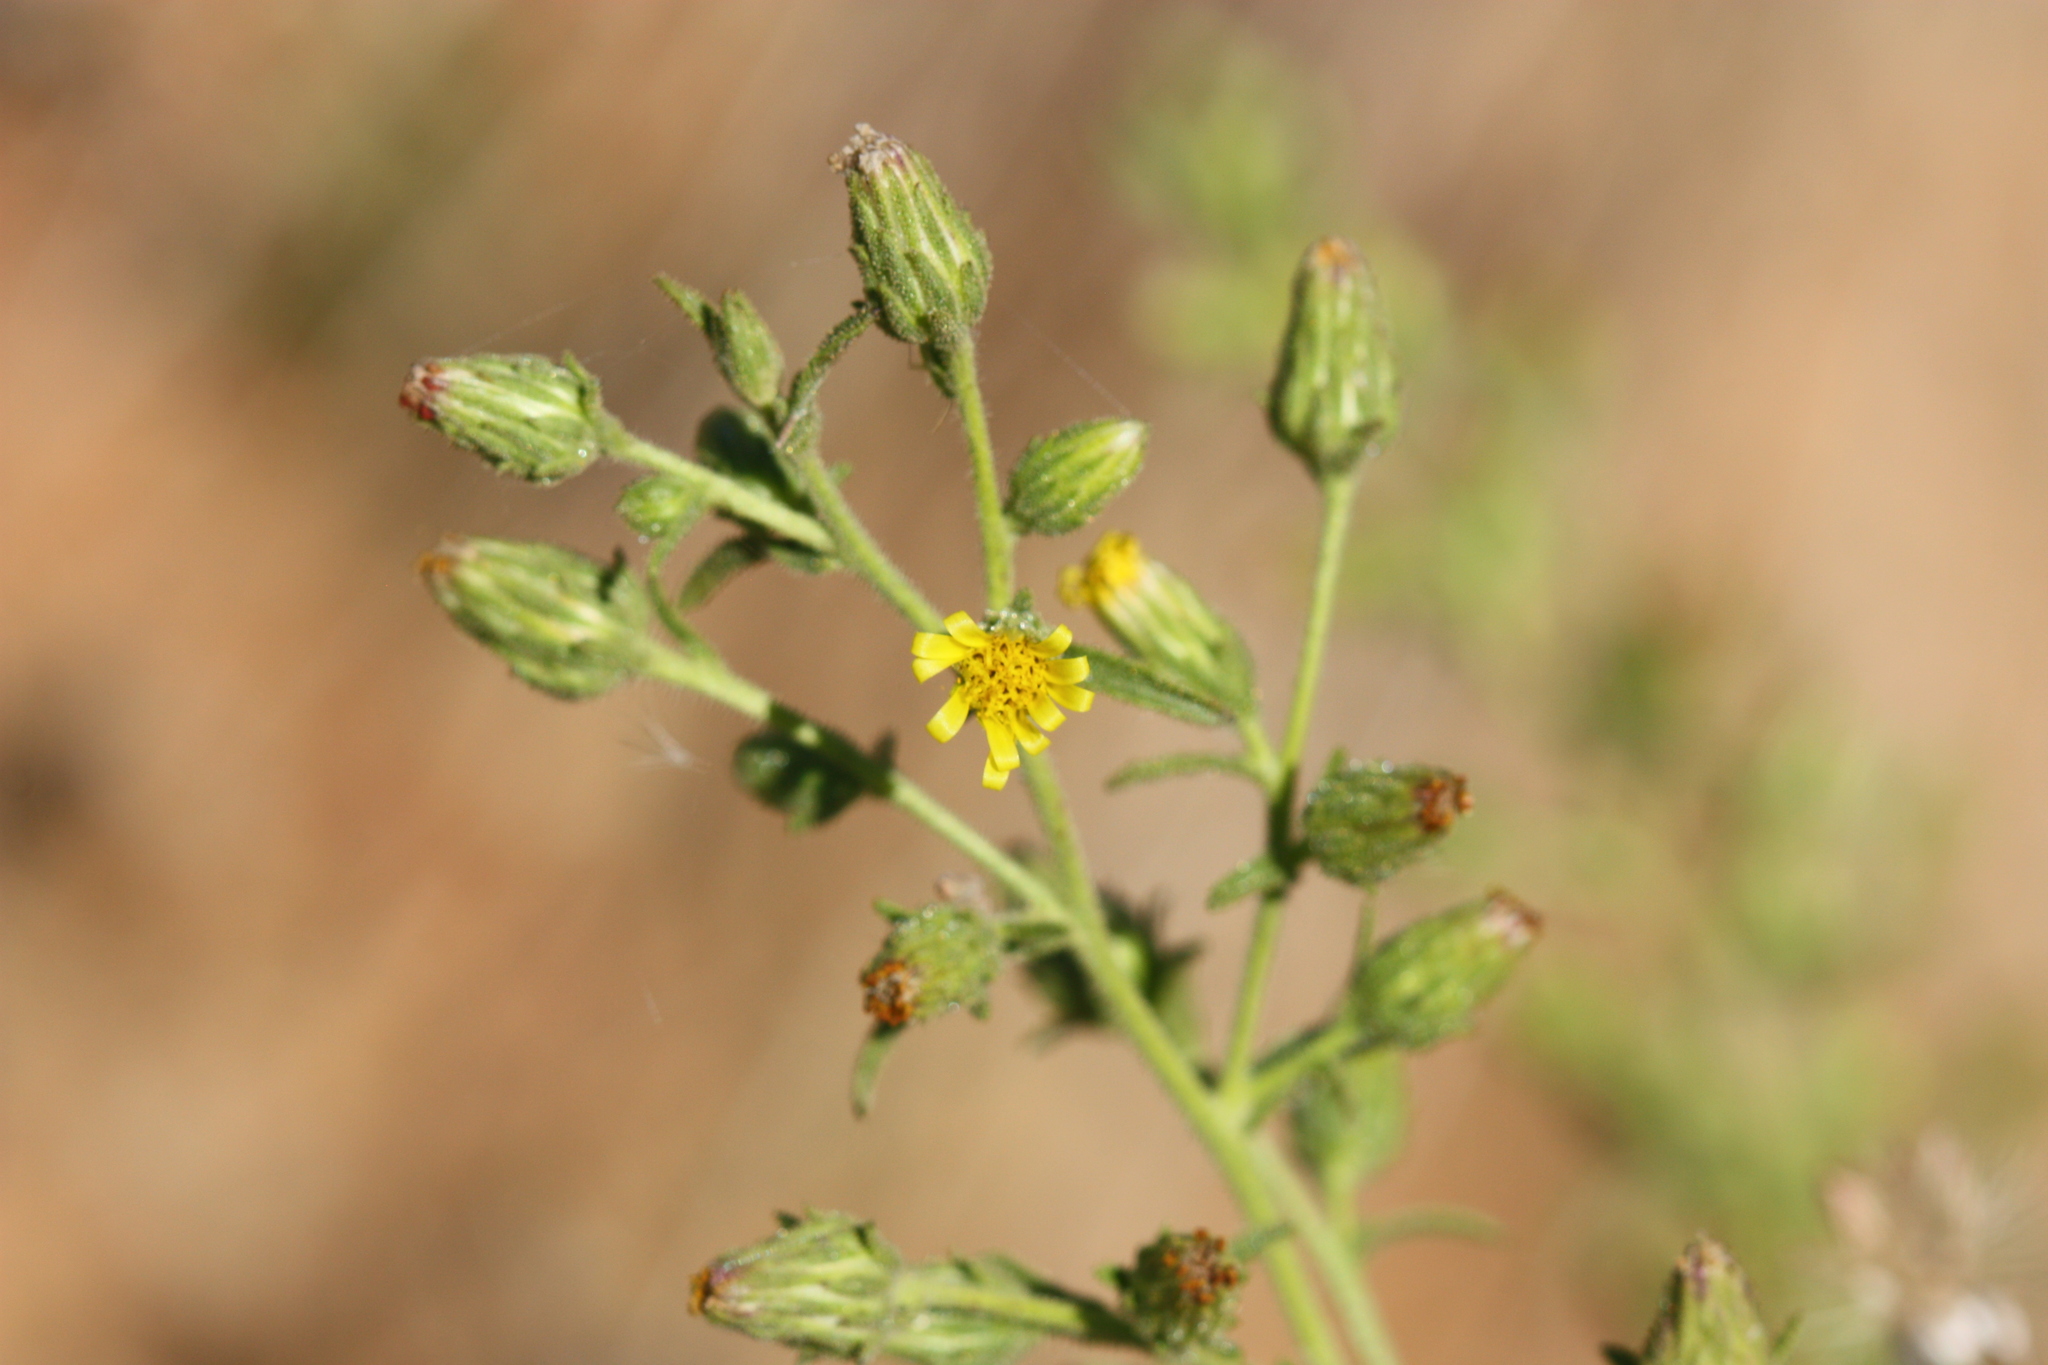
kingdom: Plantae
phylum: Tracheophyta
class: Magnoliopsida
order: Asterales
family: Asteraceae
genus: Dittrichia
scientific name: Dittrichia graveolens
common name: Stinking fleabane
